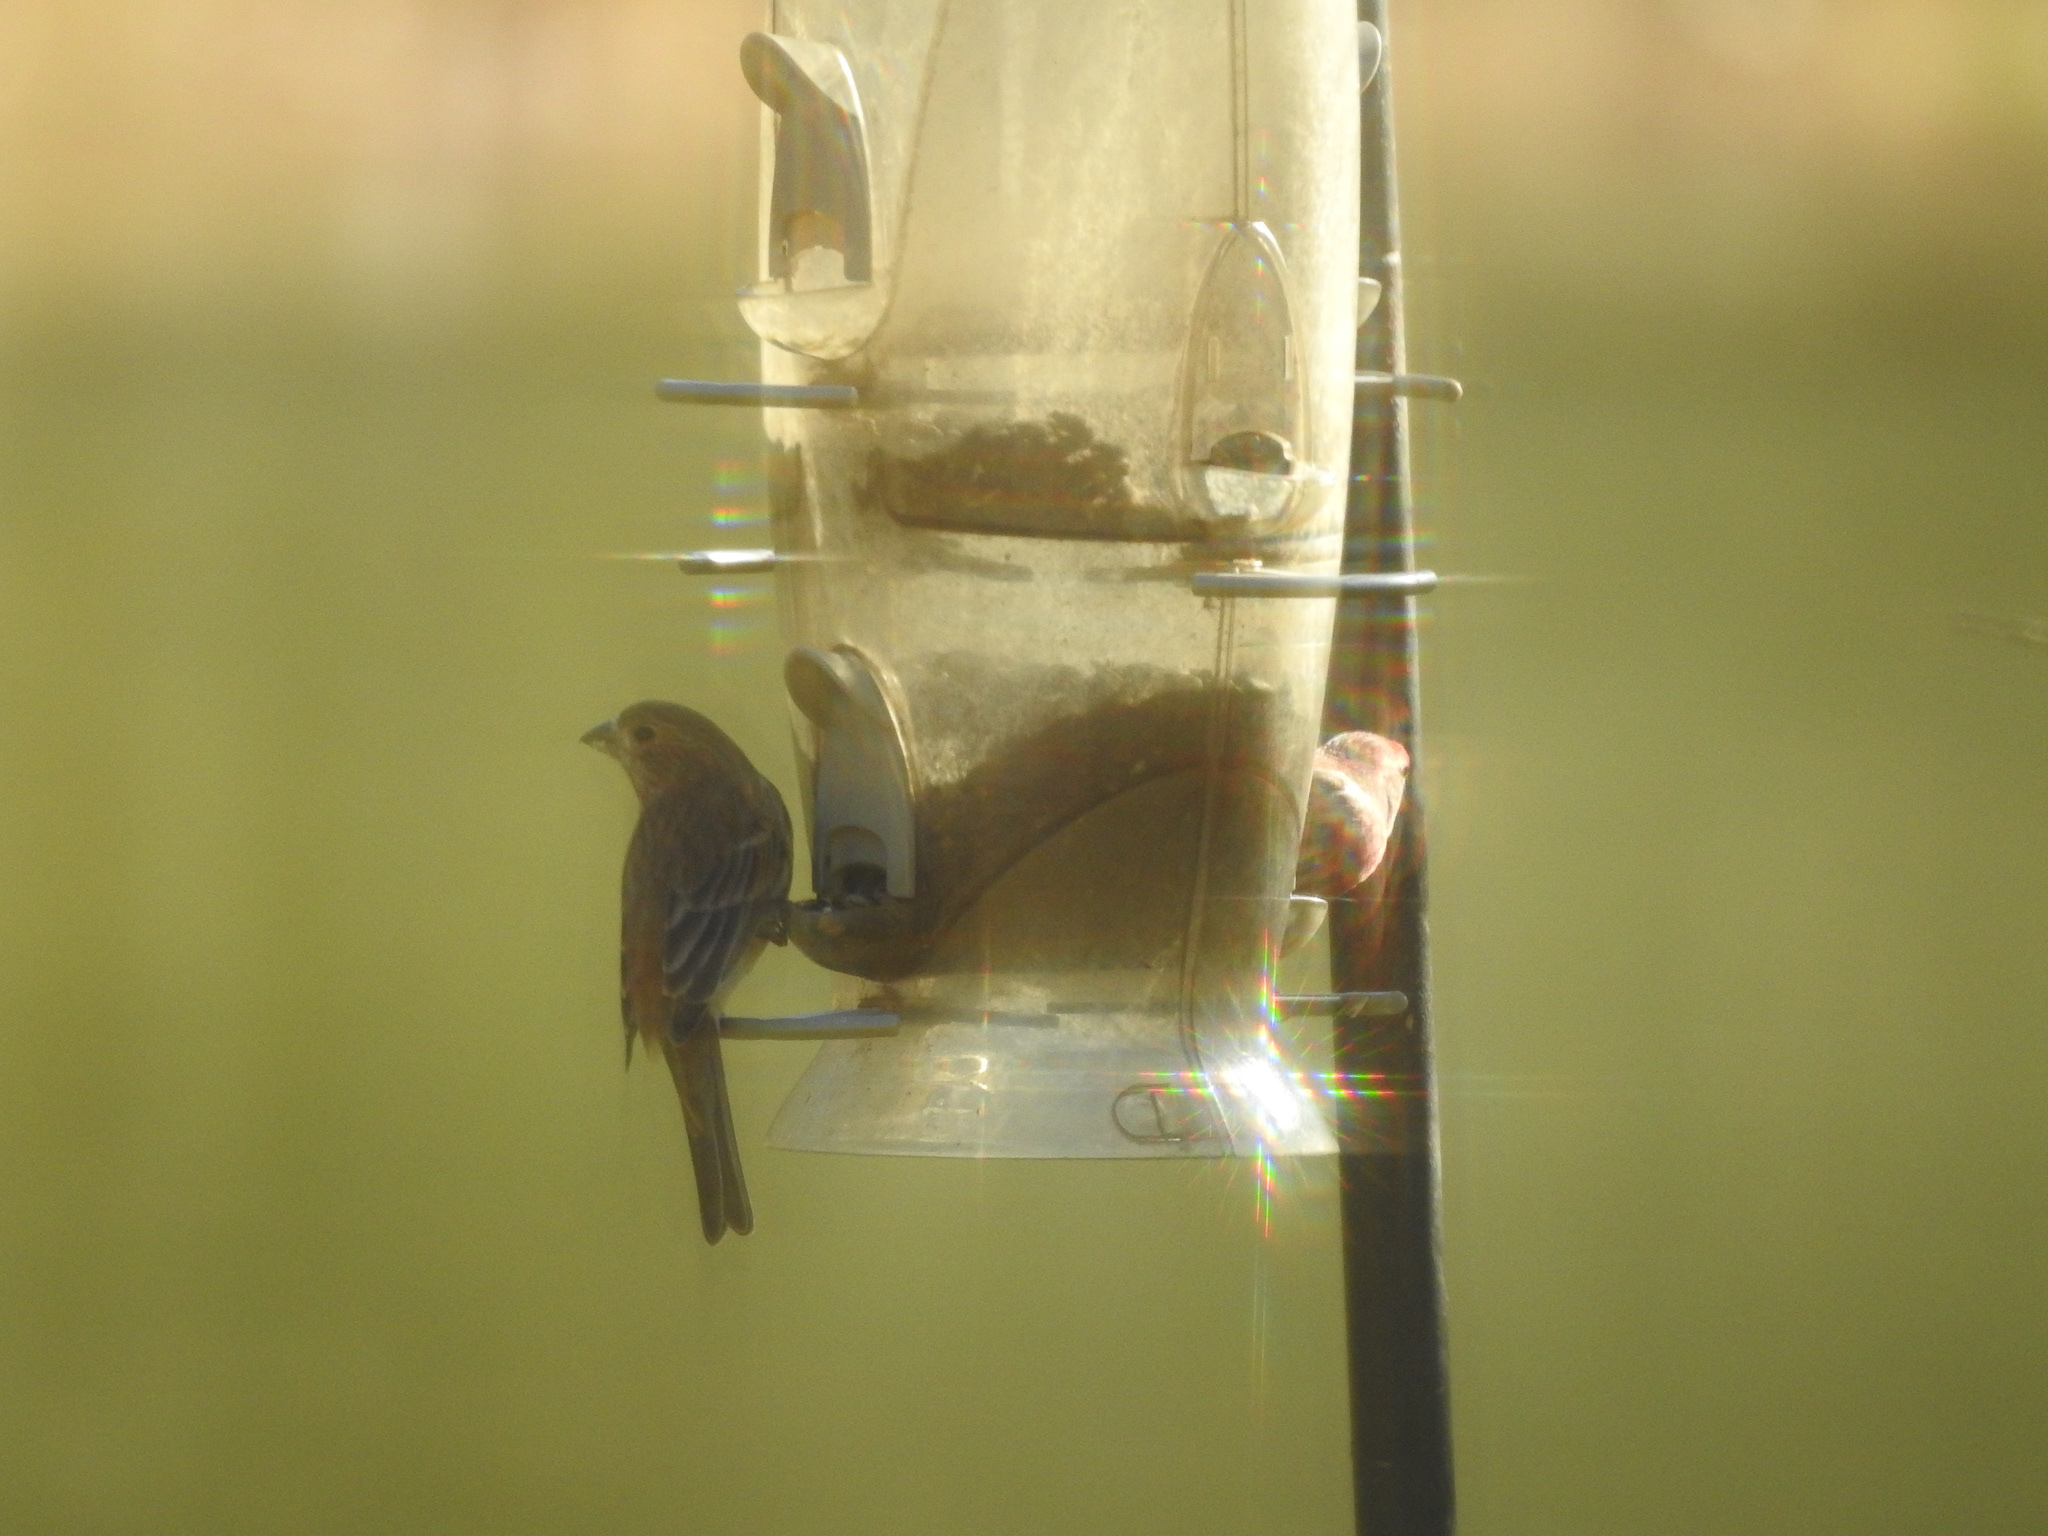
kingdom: Animalia
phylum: Chordata
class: Aves
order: Passeriformes
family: Fringillidae
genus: Haemorhous
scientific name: Haemorhous mexicanus
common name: House finch
